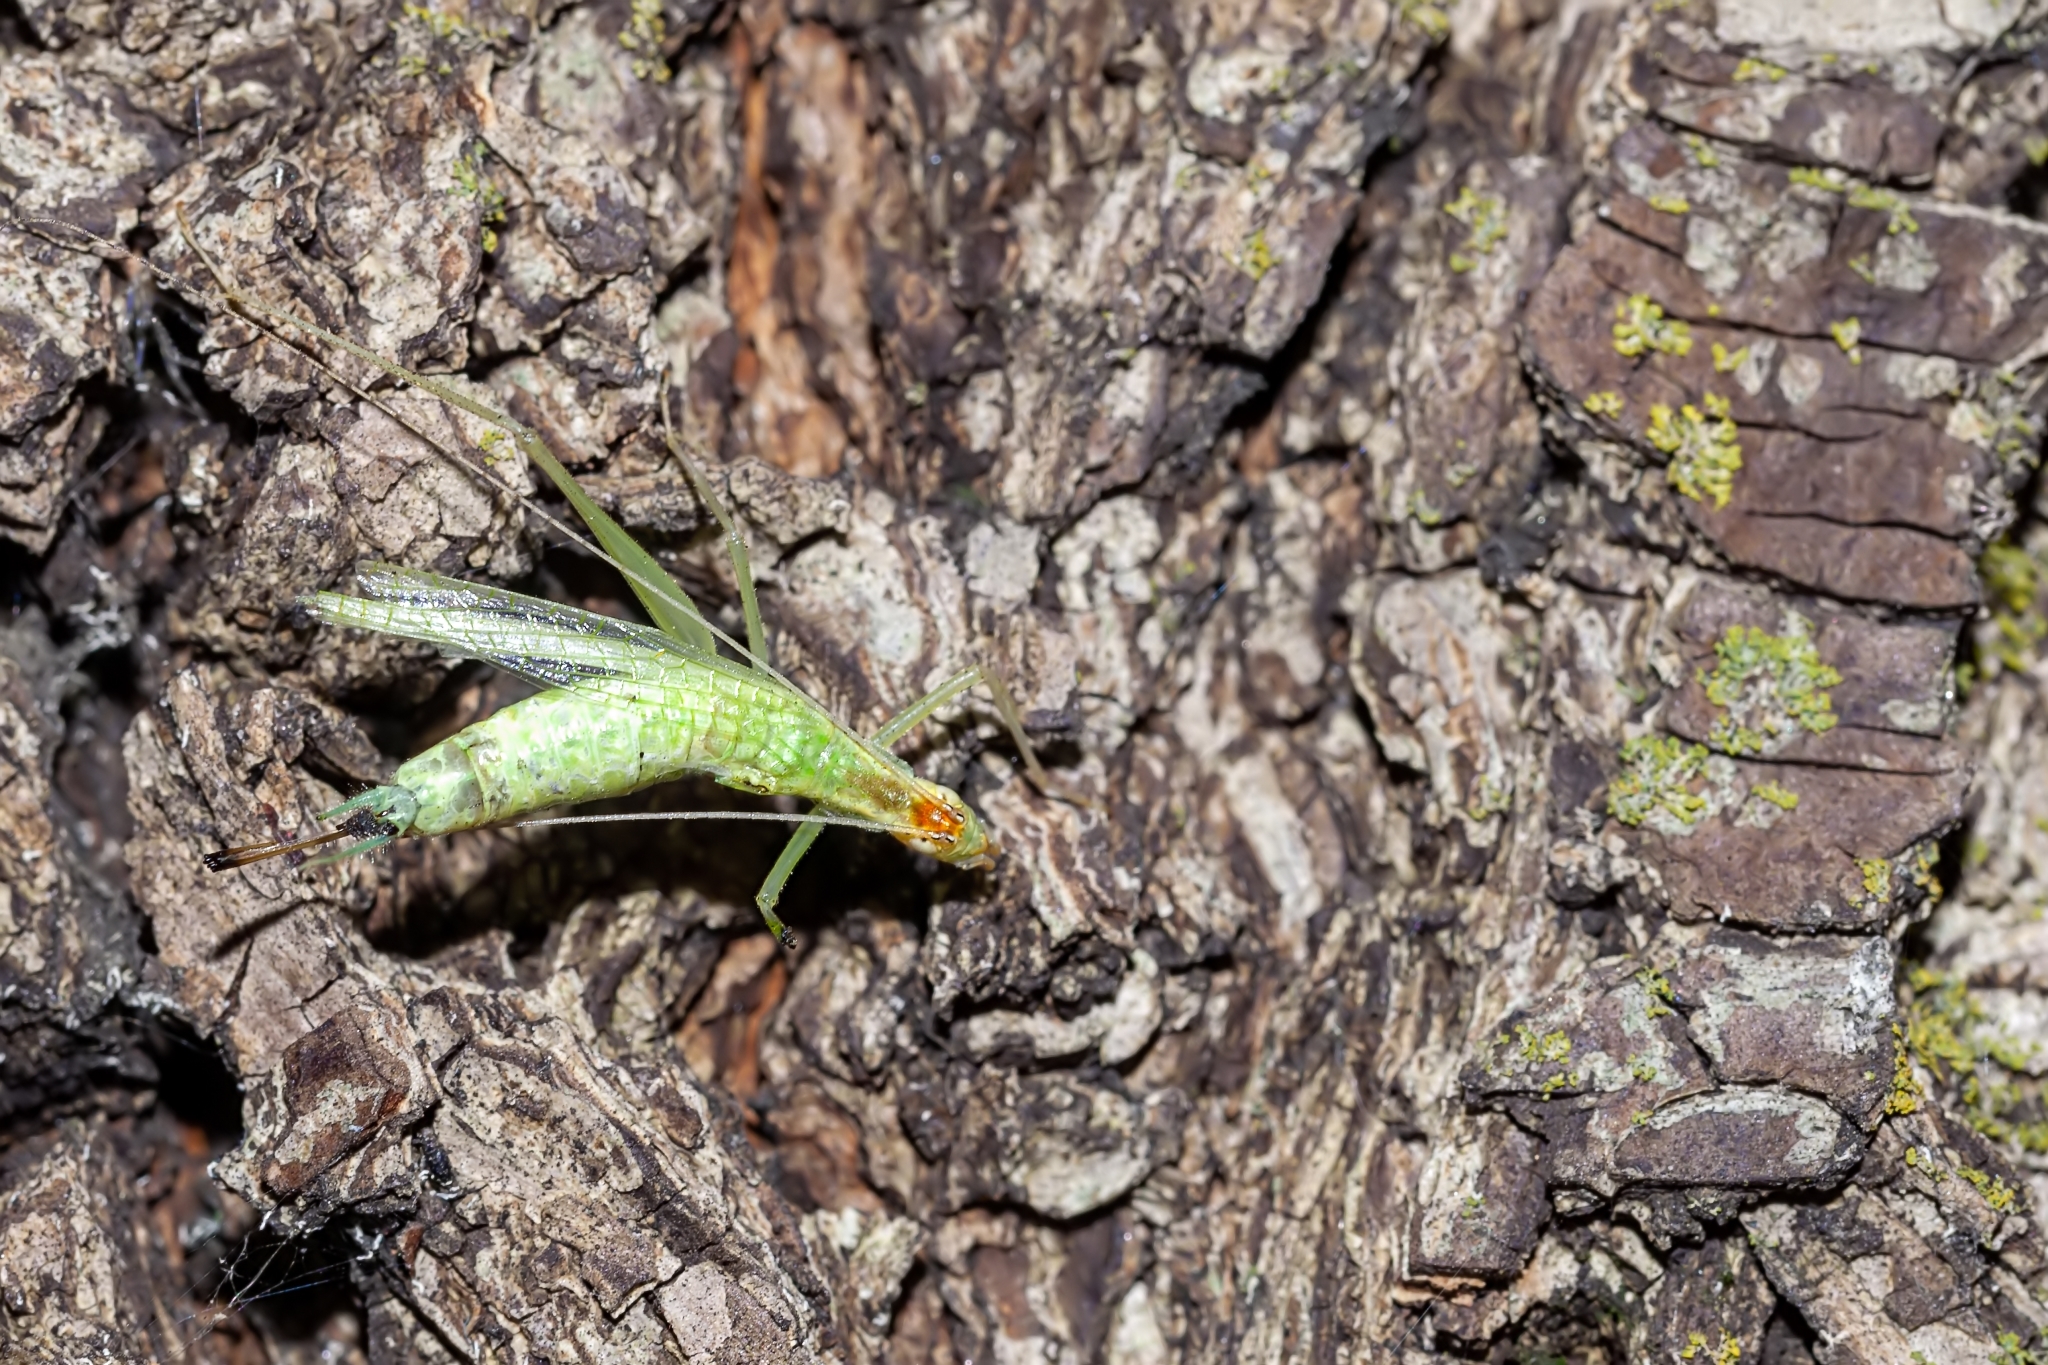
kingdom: Animalia
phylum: Arthropoda
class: Insecta
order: Orthoptera
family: Gryllidae
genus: Oecanthus
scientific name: Oecanthus niveus
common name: Narrow-winged tree cricket
